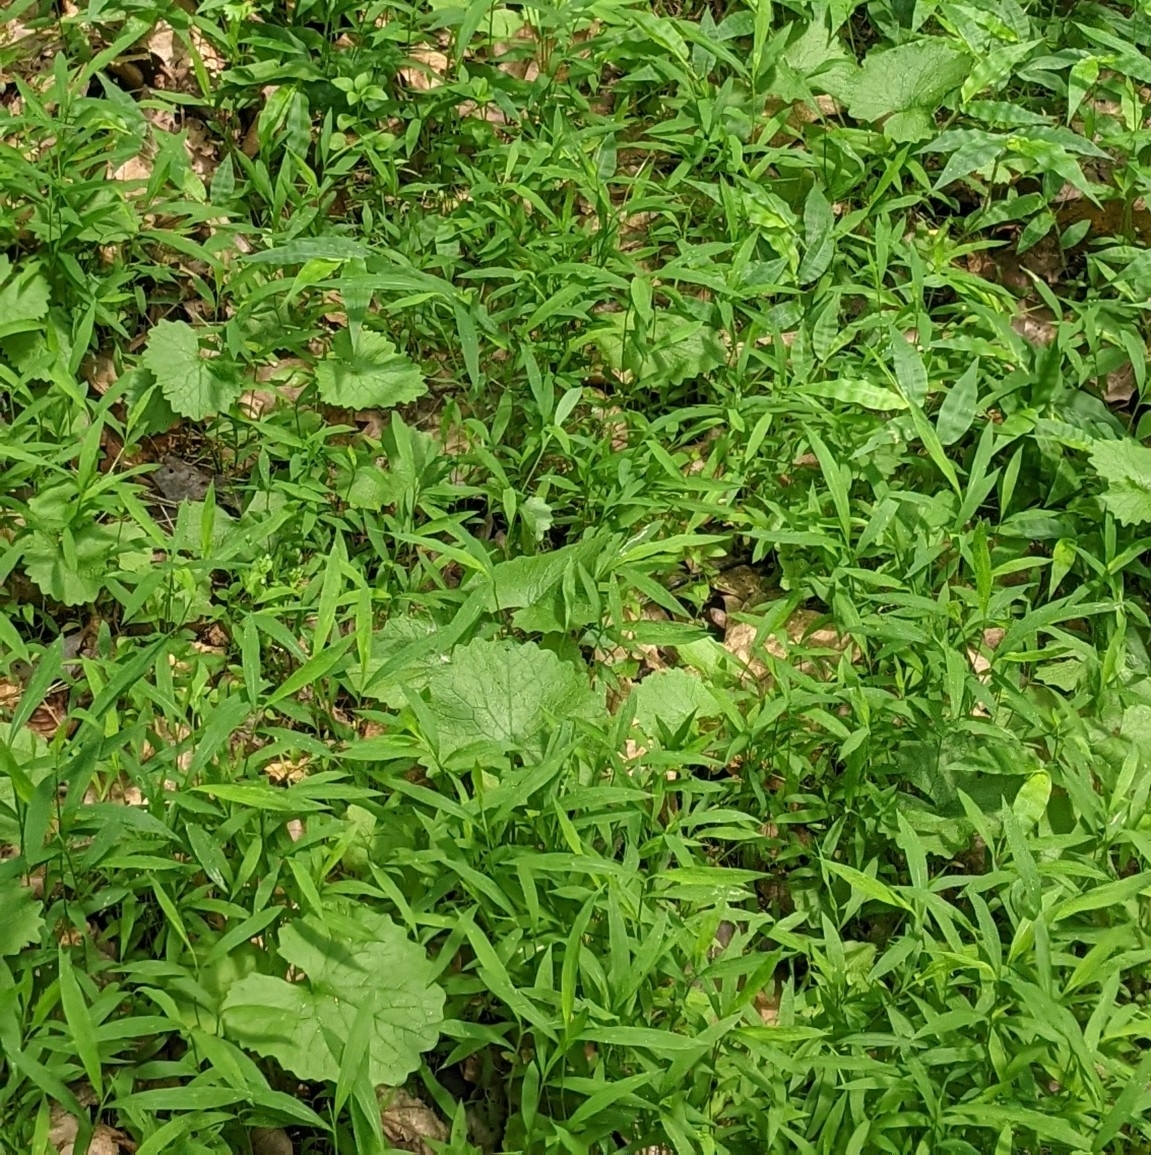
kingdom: Plantae
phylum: Tracheophyta
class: Liliopsida
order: Poales
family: Poaceae
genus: Microstegium
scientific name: Microstegium vimineum
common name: Japanese stiltgrass
